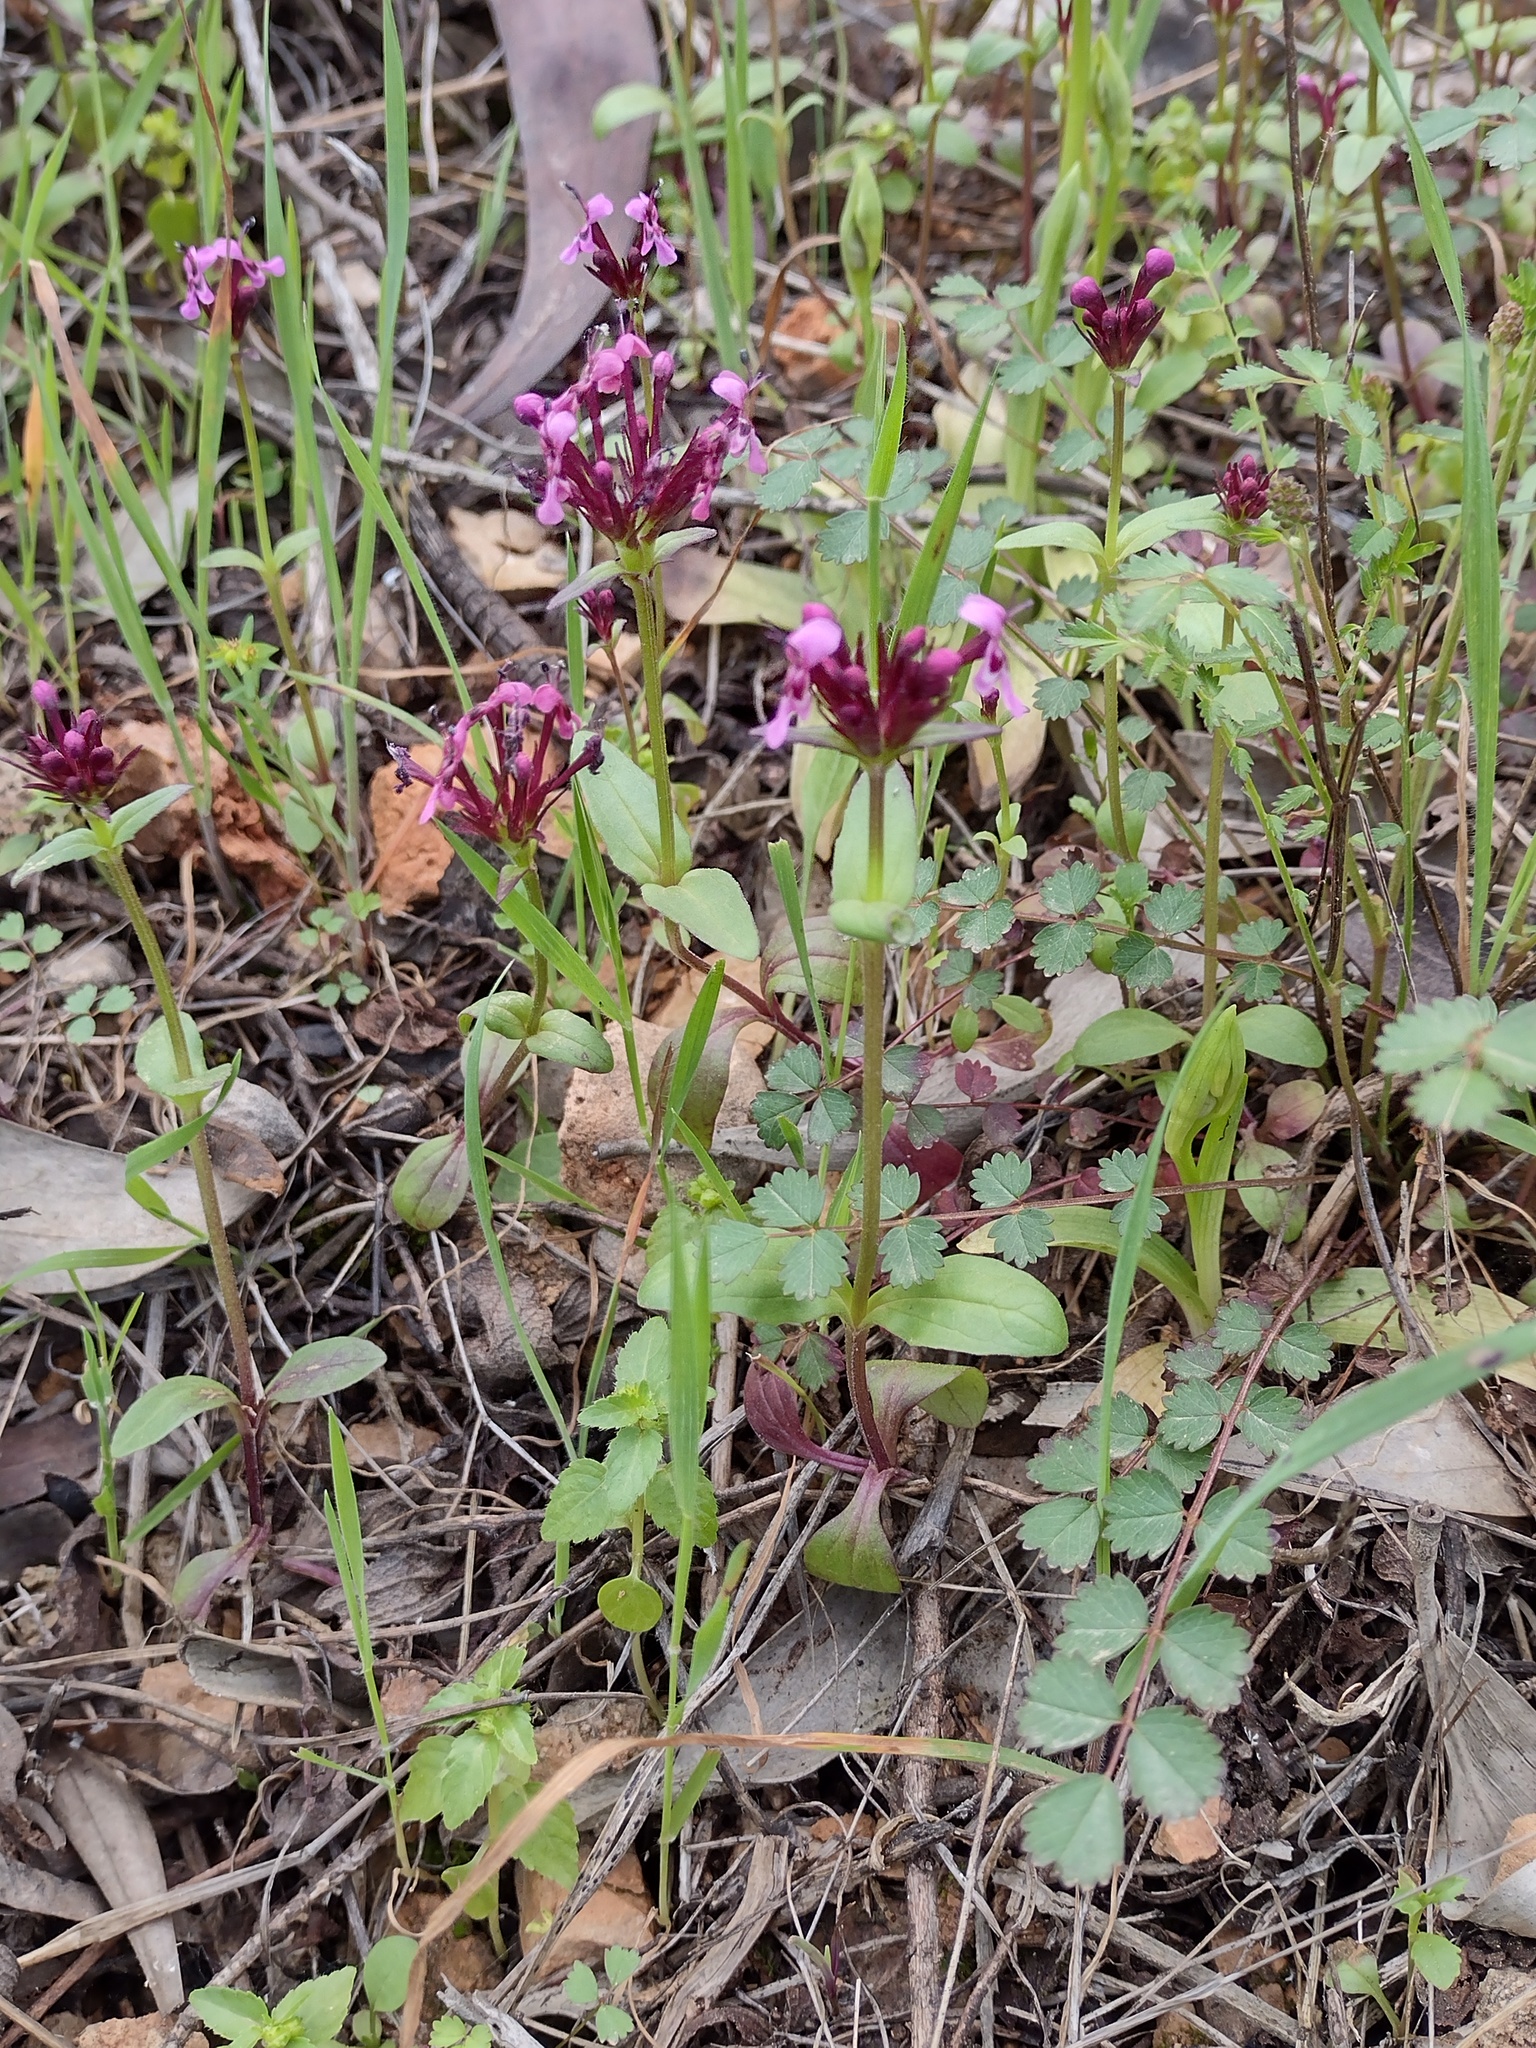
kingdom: Plantae
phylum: Tracheophyta
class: Magnoliopsida
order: Dipsacales
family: Caprifoliaceae
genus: Fedia
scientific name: Fedia cornucopiae
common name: Horn-of-plenty
